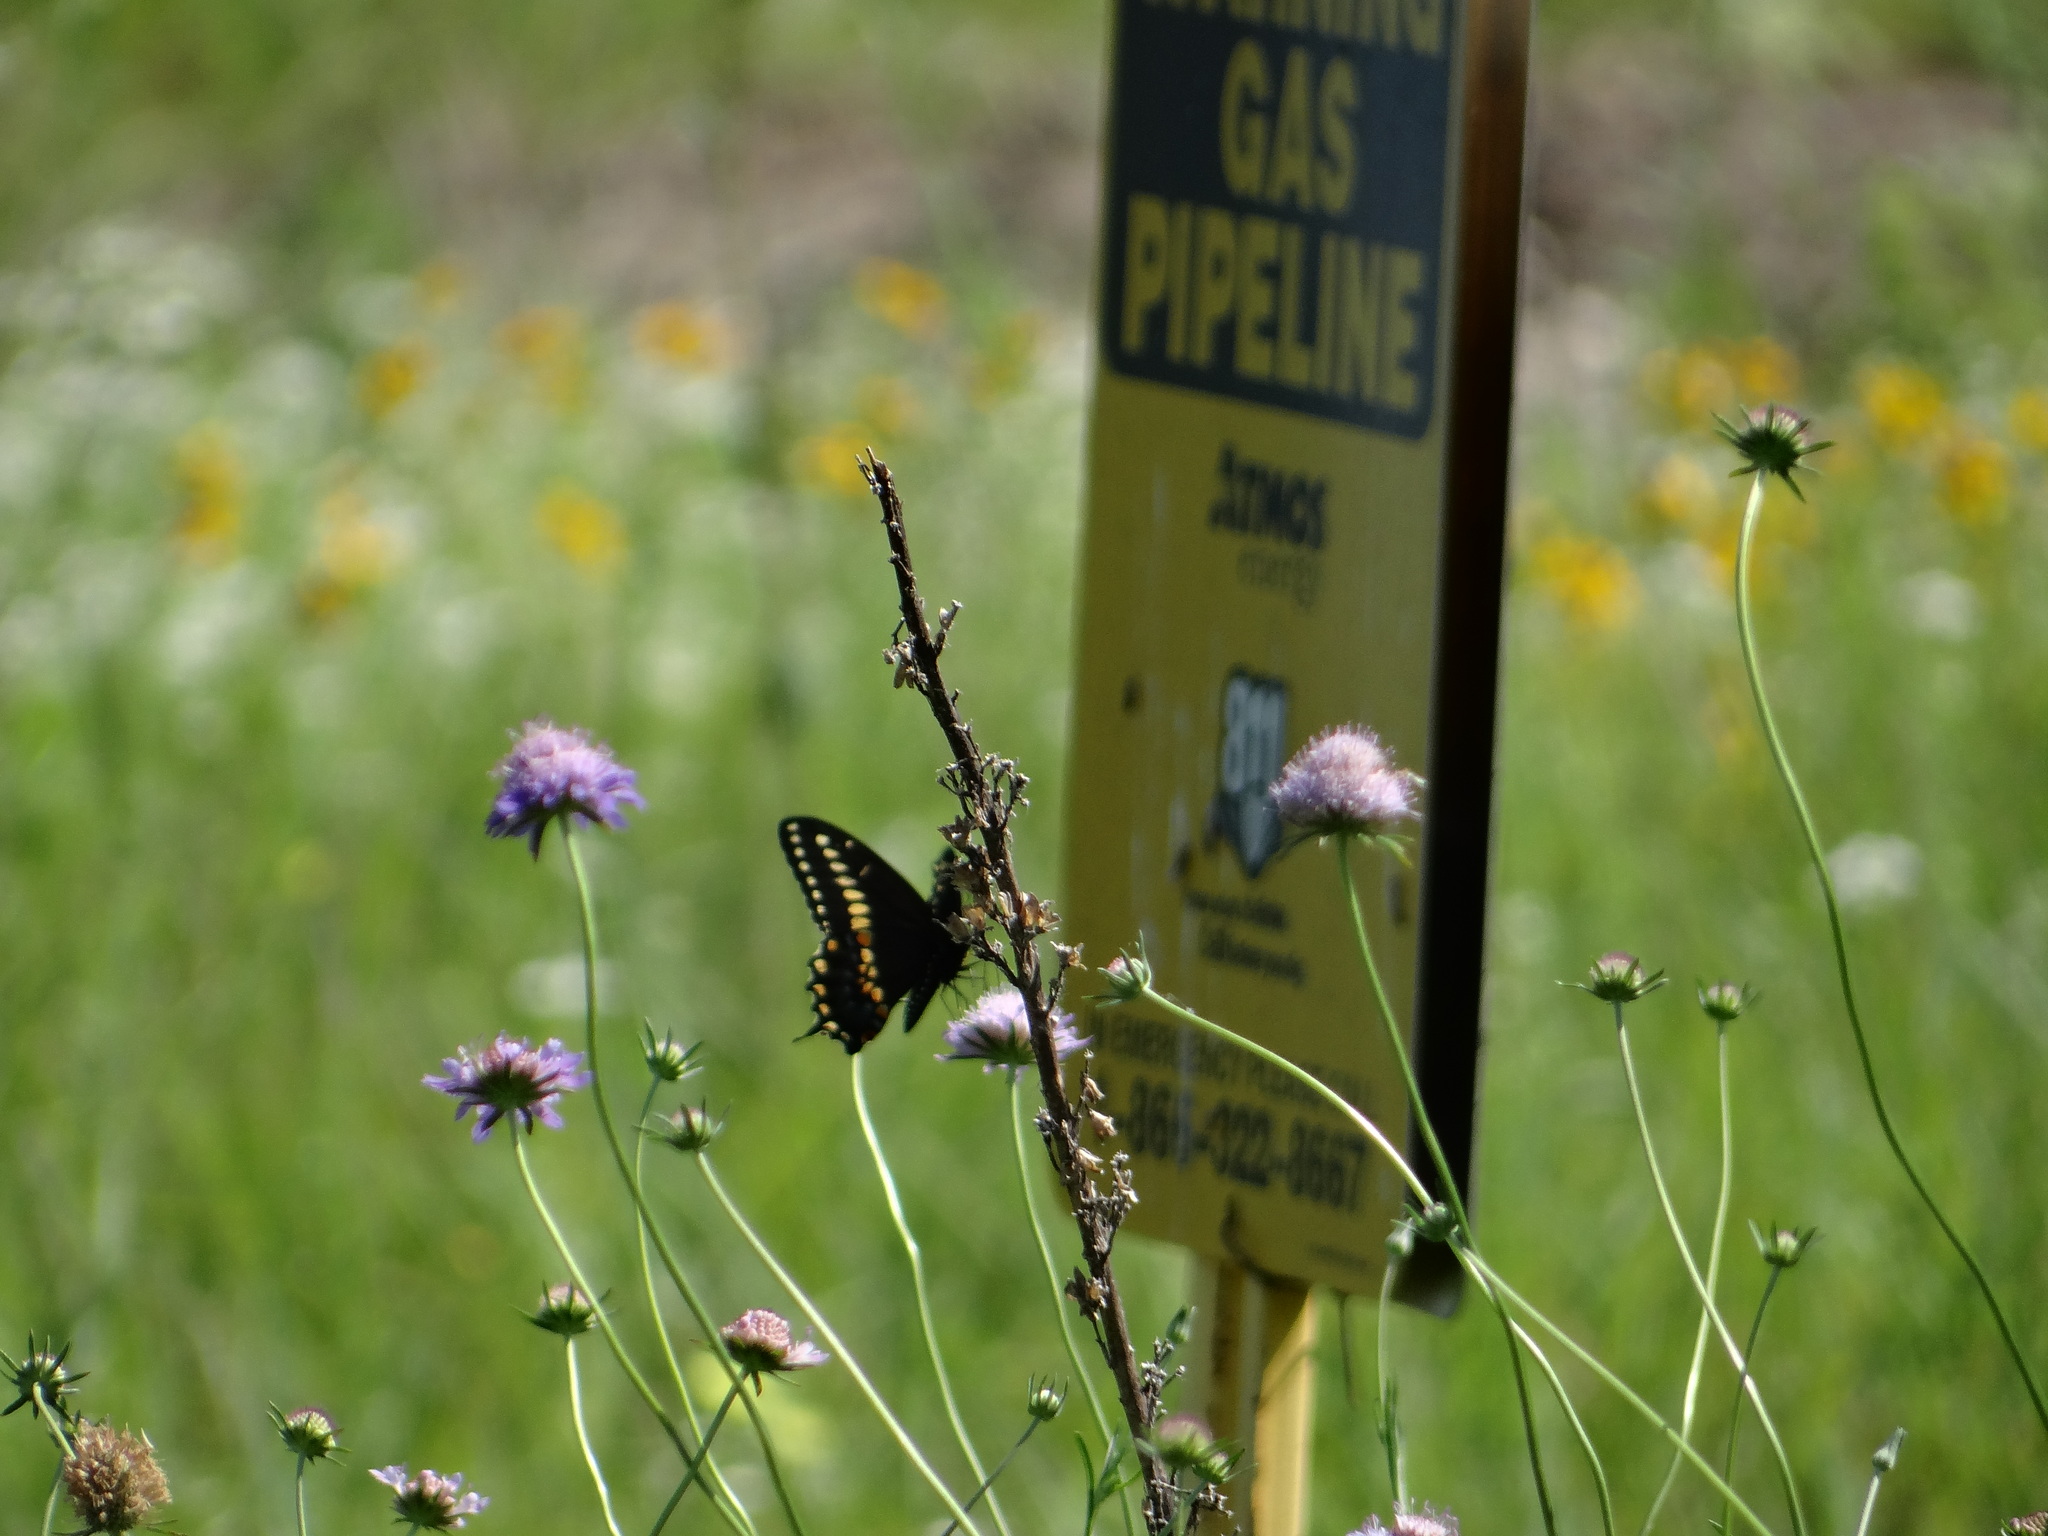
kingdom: Animalia
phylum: Arthropoda
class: Insecta
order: Lepidoptera
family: Papilionidae
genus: Papilio
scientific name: Papilio polyxenes
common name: Black swallowtail
